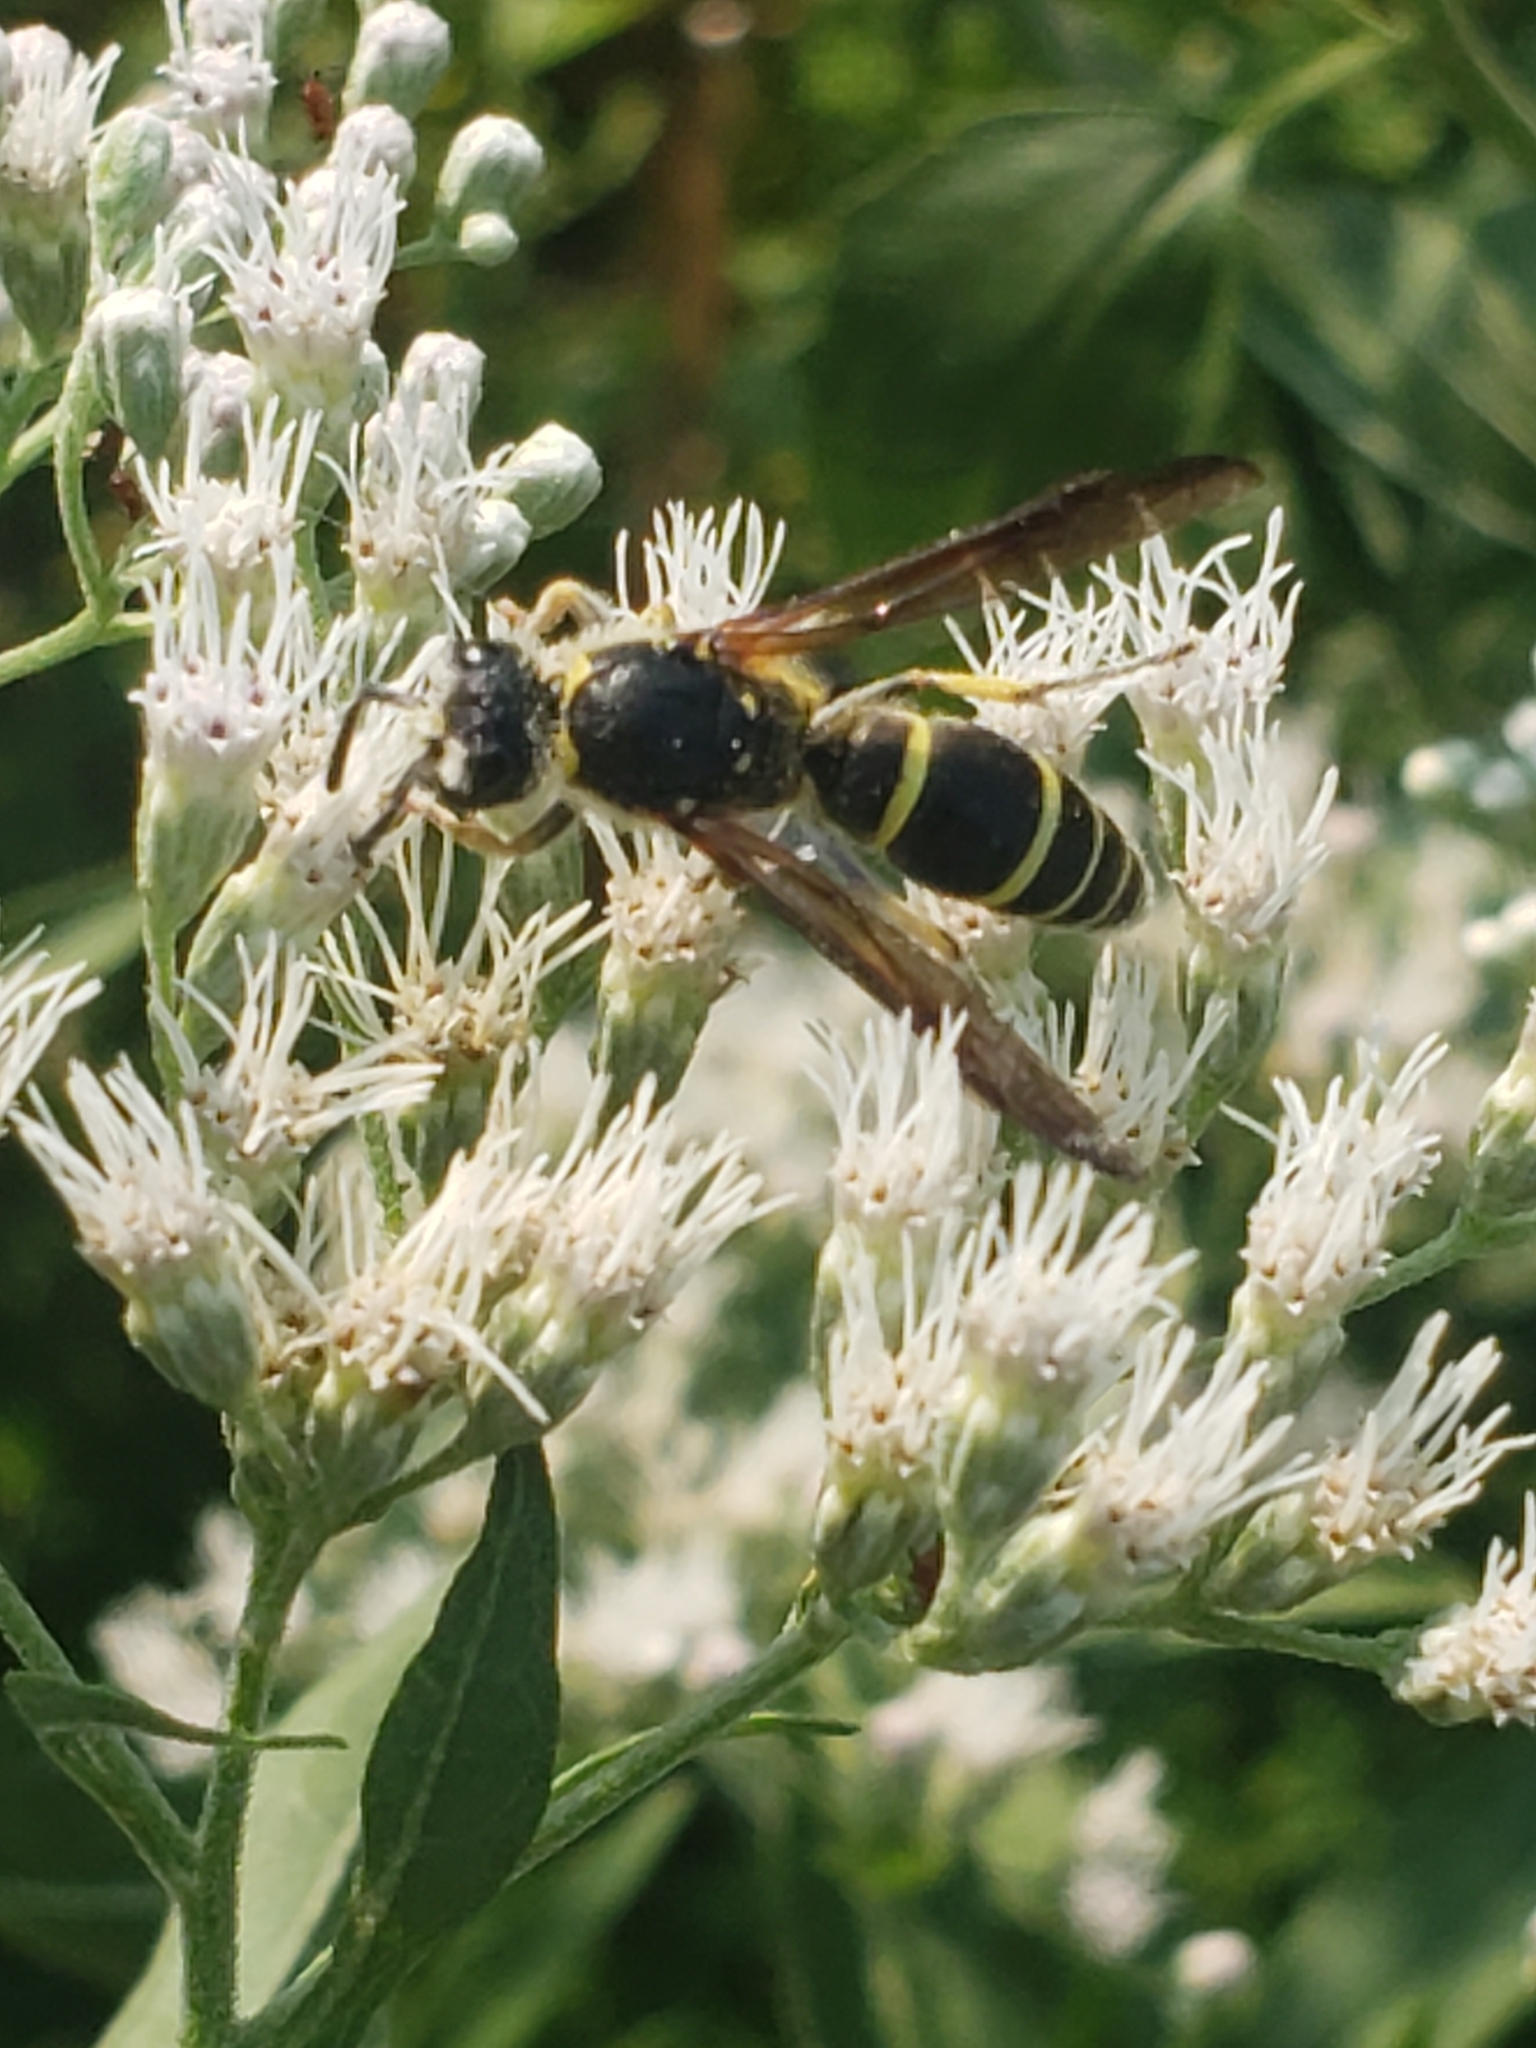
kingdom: Animalia
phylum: Arthropoda
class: Insecta
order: Hymenoptera
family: Vespidae
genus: Ancistrocerus
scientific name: Ancistrocerus
